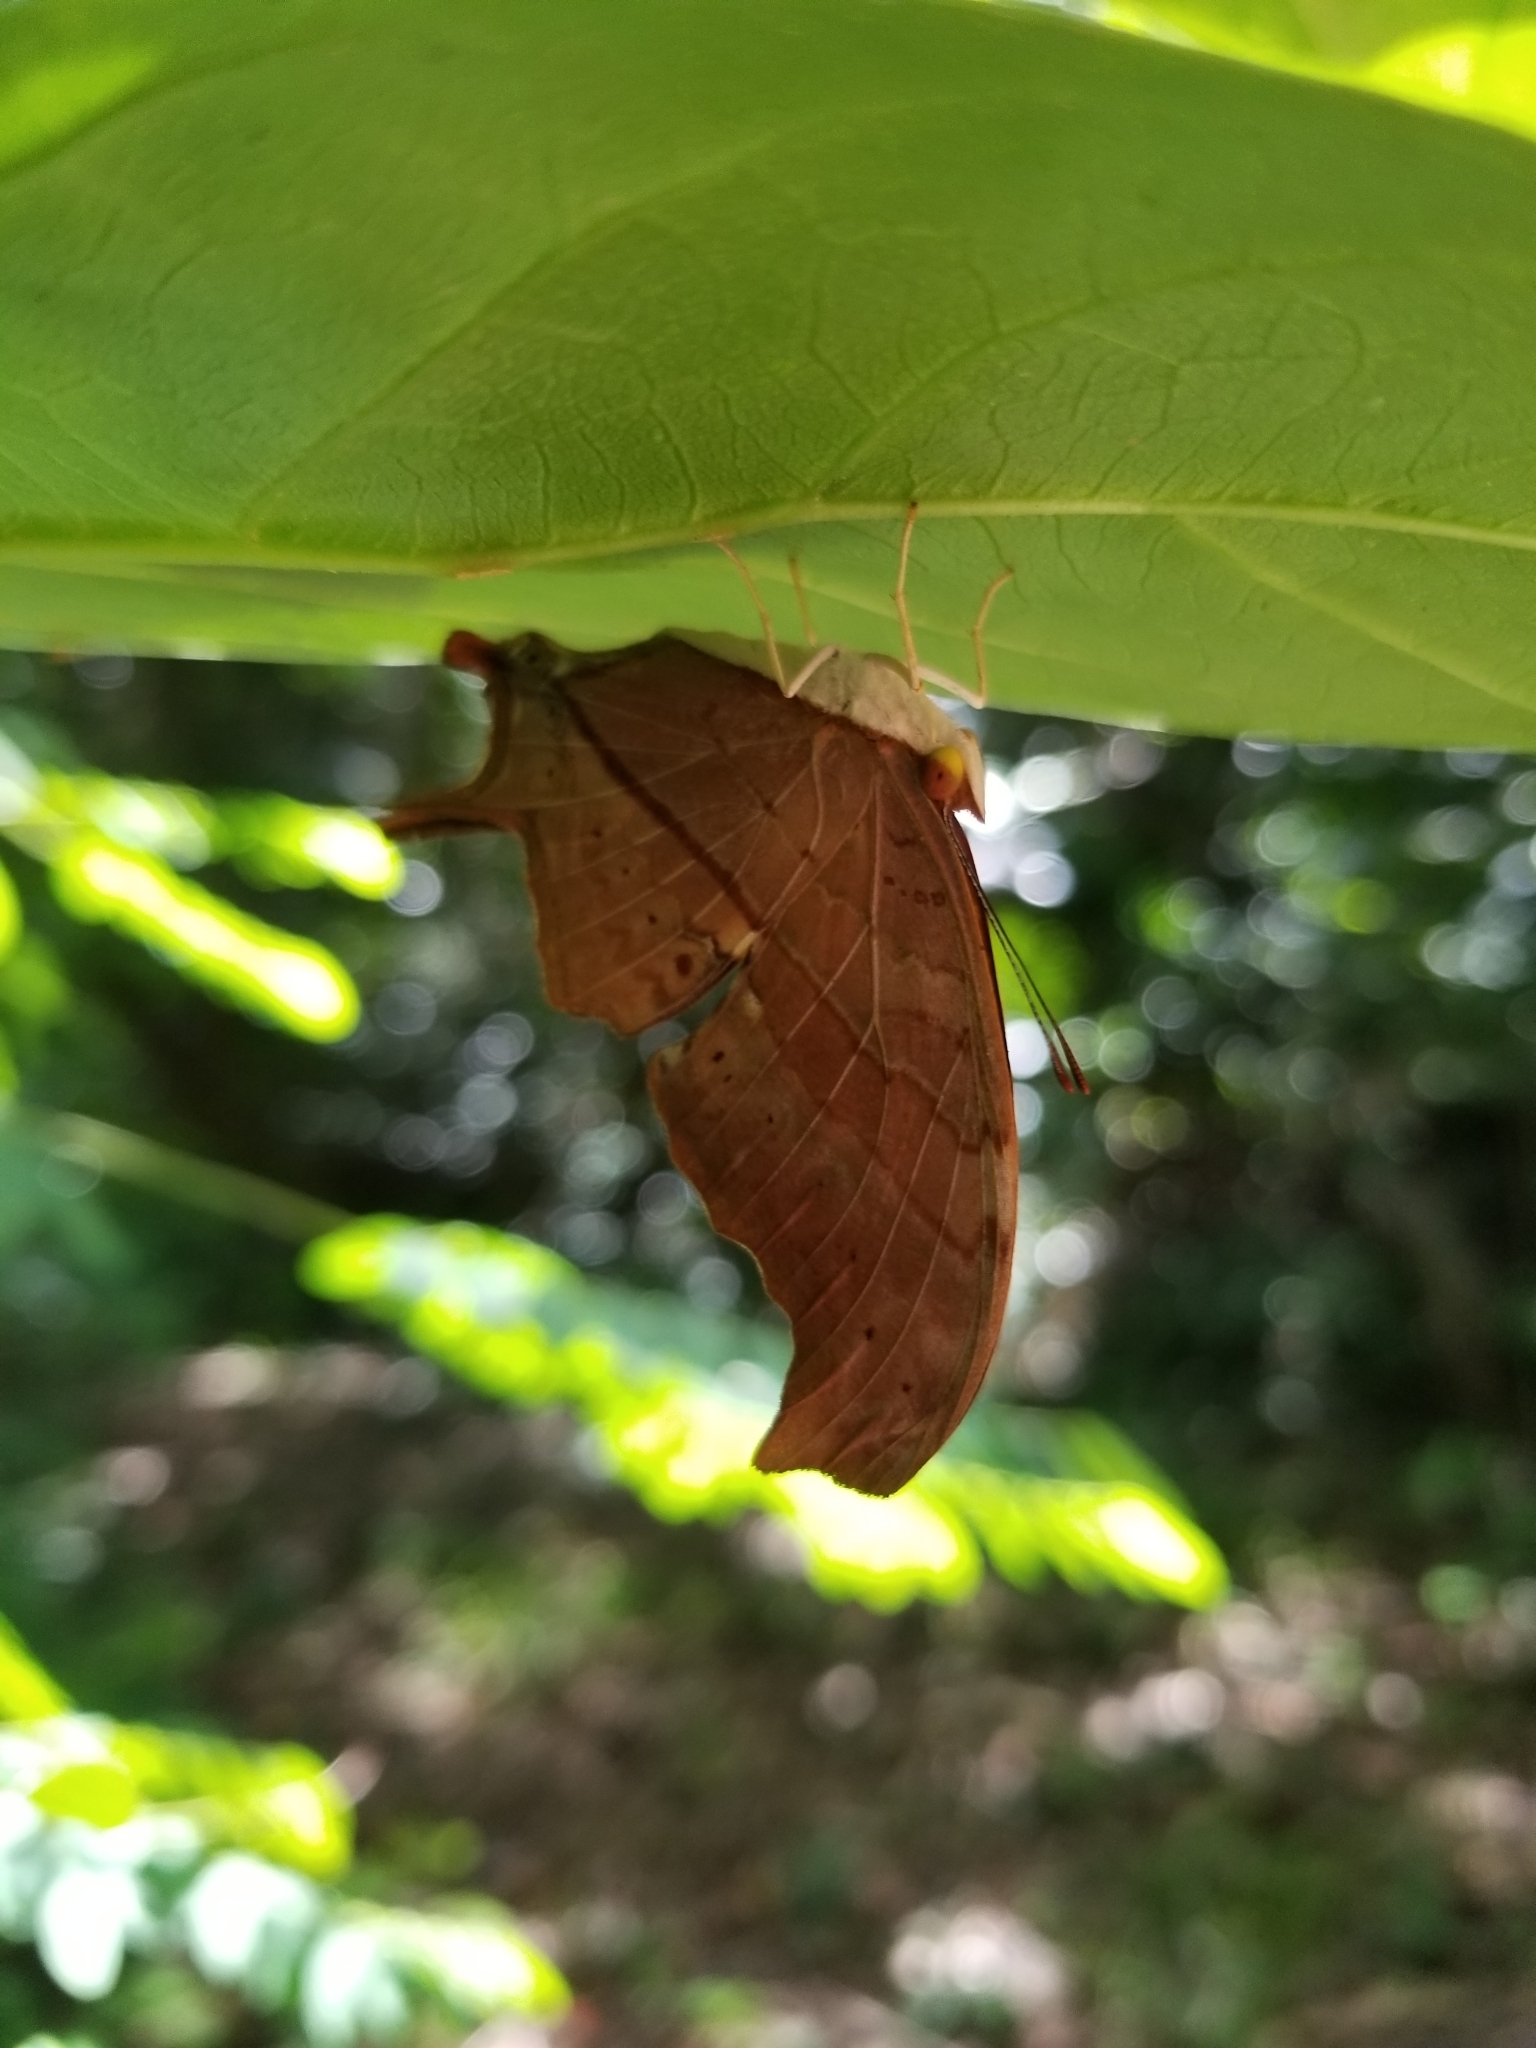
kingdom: Animalia
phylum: Arthropoda
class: Insecta
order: Lepidoptera
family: Nymphalidae
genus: Marpesia
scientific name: Marpesia petreus
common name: Red dagger wing
